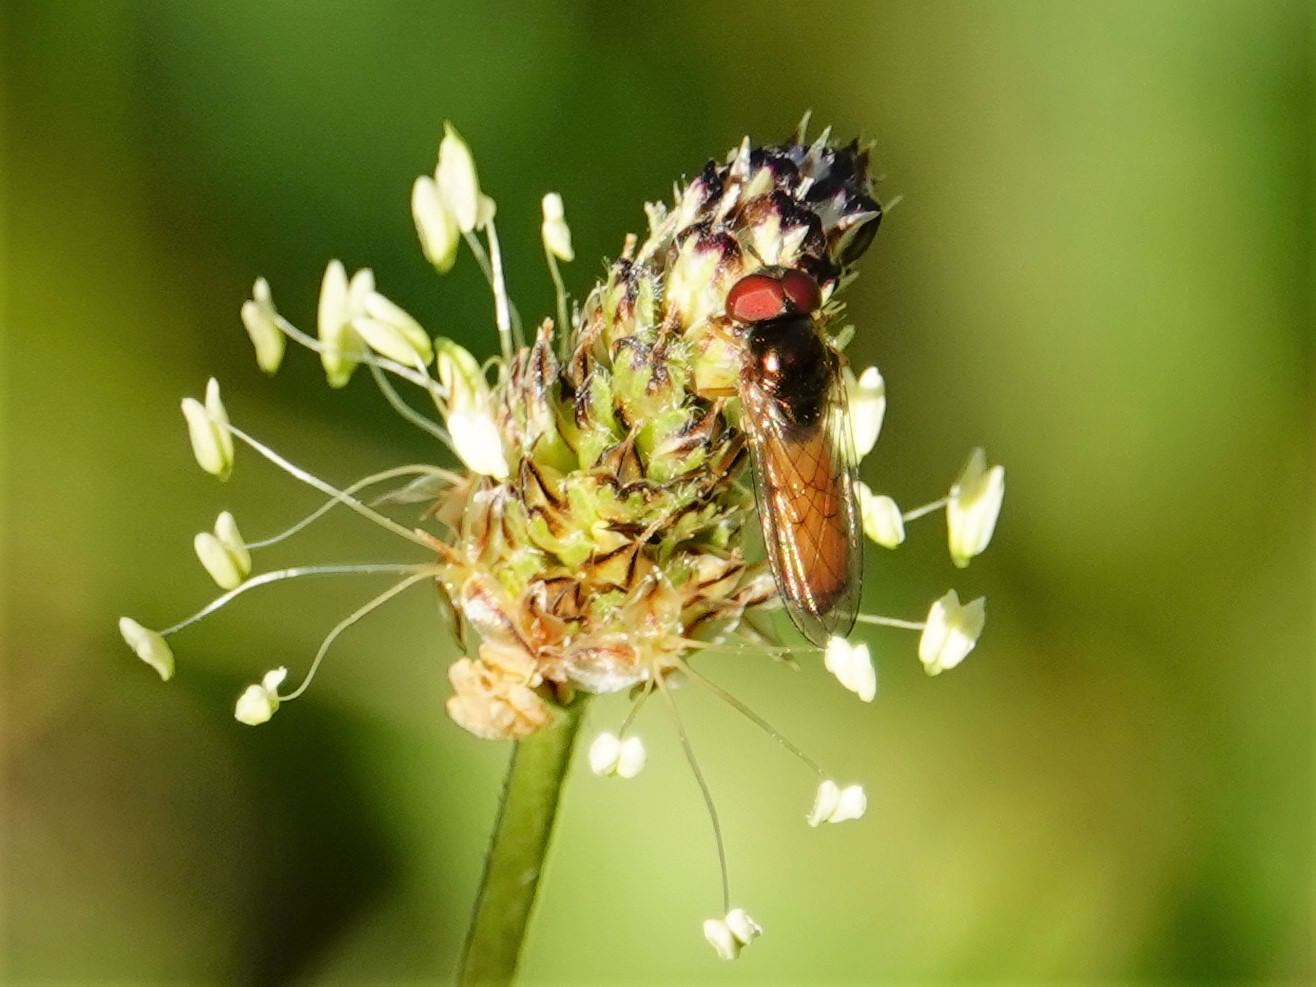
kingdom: Animalia
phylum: Arthropoda
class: Insecta
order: Diptera
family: Syrphidae
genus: Melanostoma
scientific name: Melanostoma fasciatum
